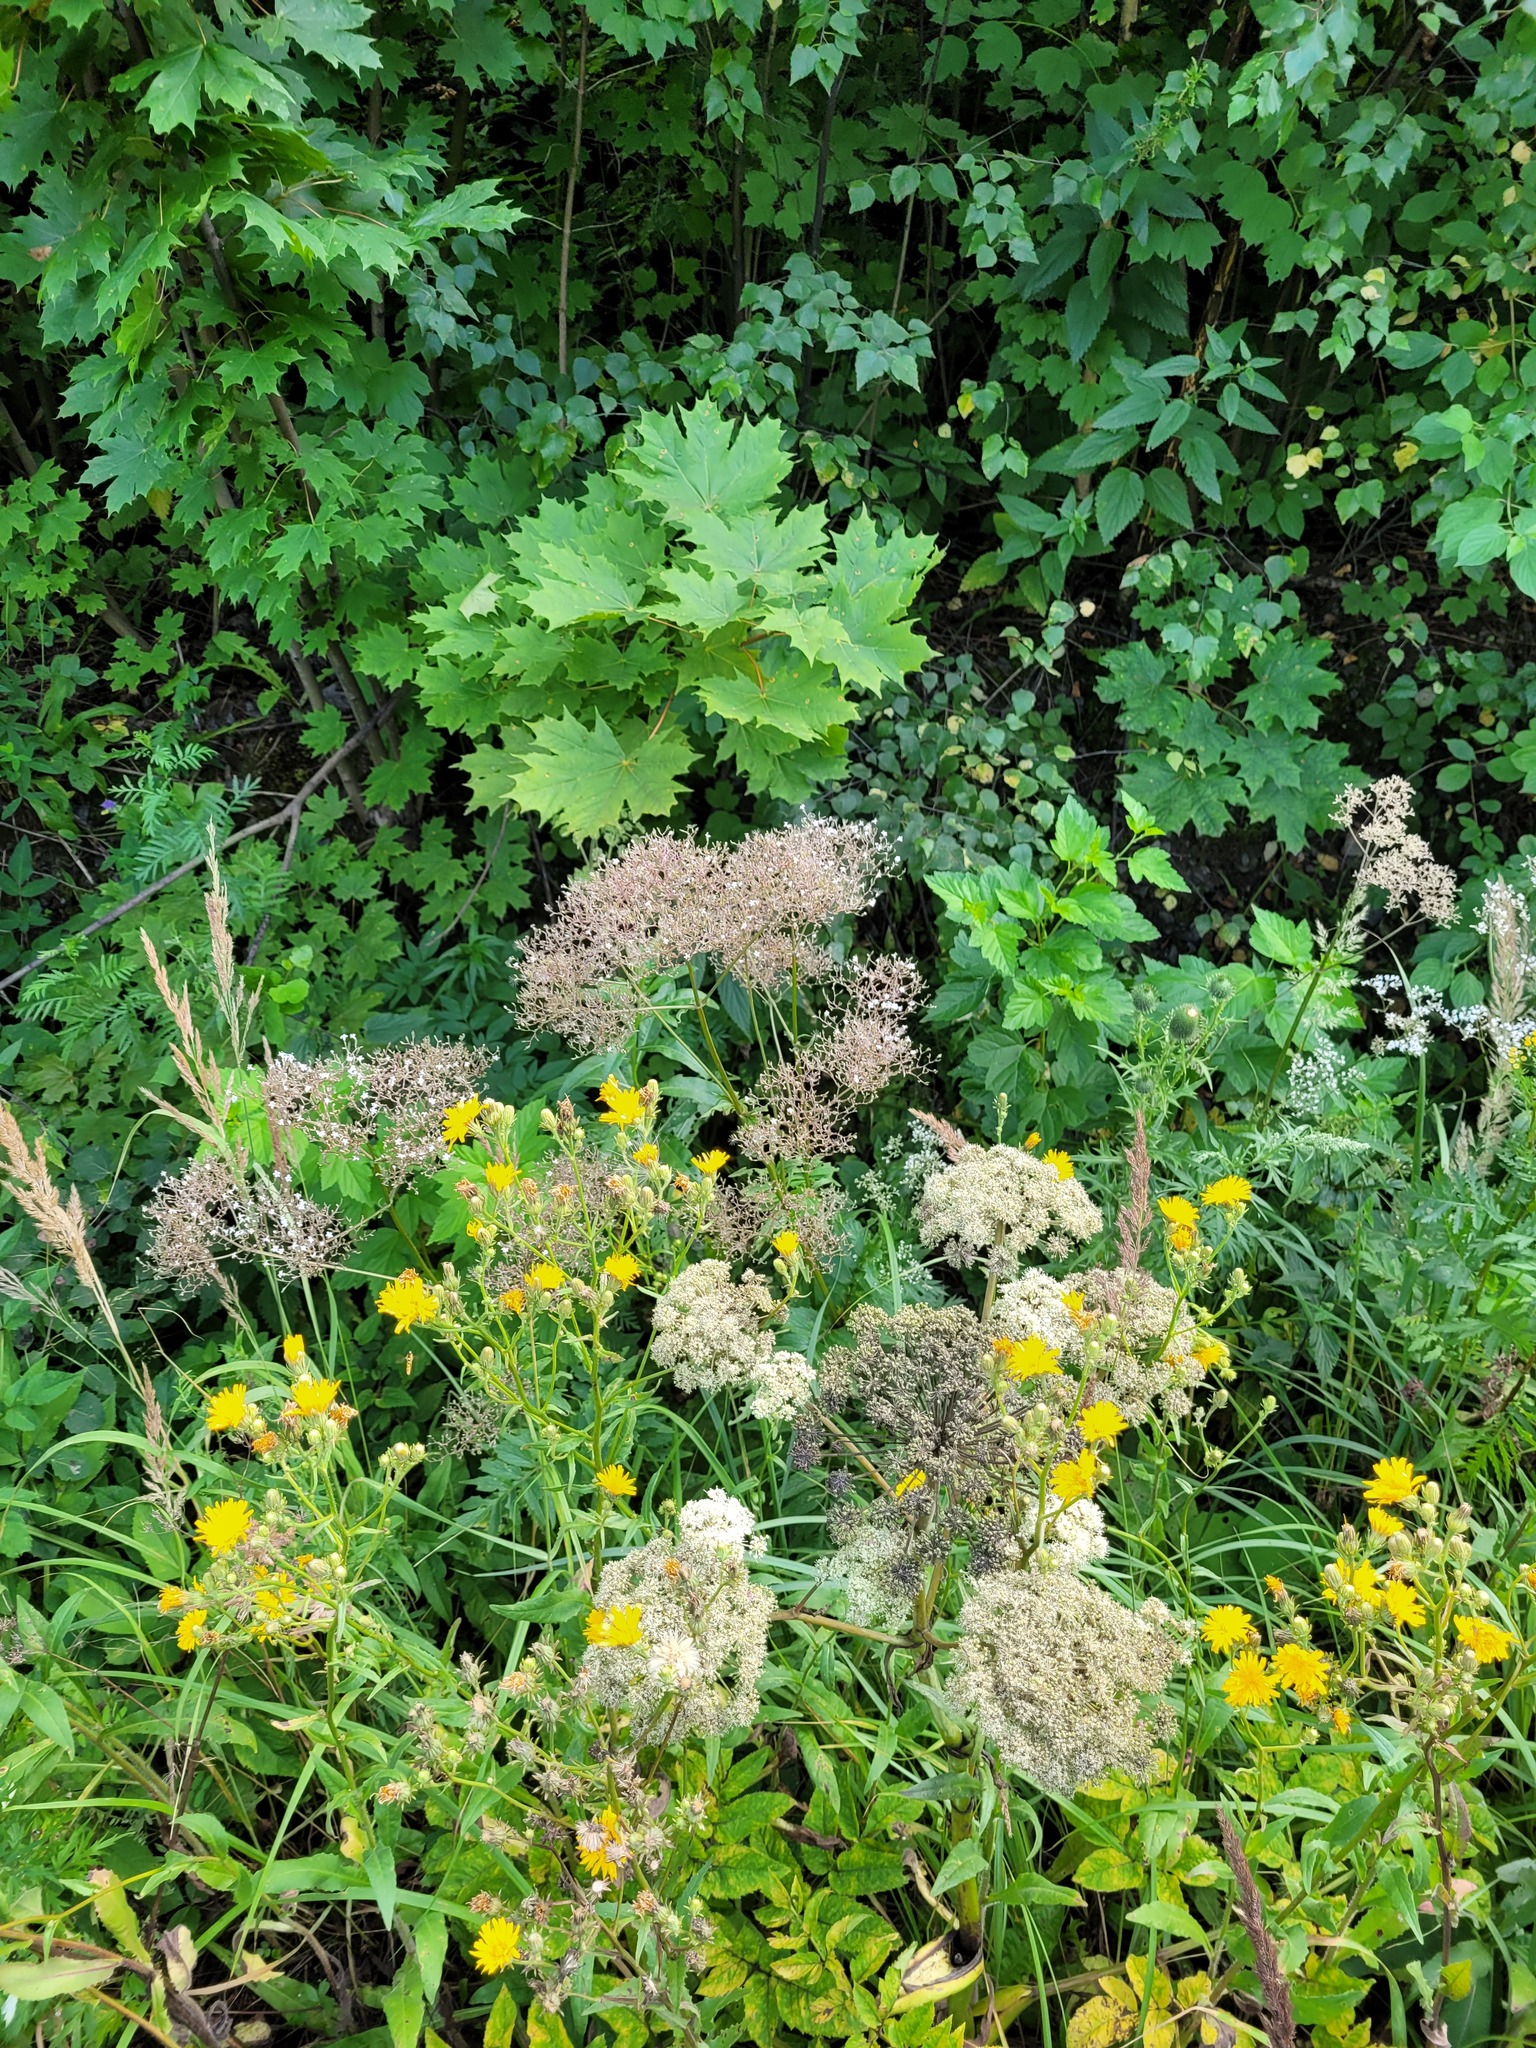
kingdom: Plantae
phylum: Tracheophyta
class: Magnoliopsida
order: Dipsacales
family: Caprifoliaceae
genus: Valeriana
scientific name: Valeriana officinalis
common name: Common valerian
